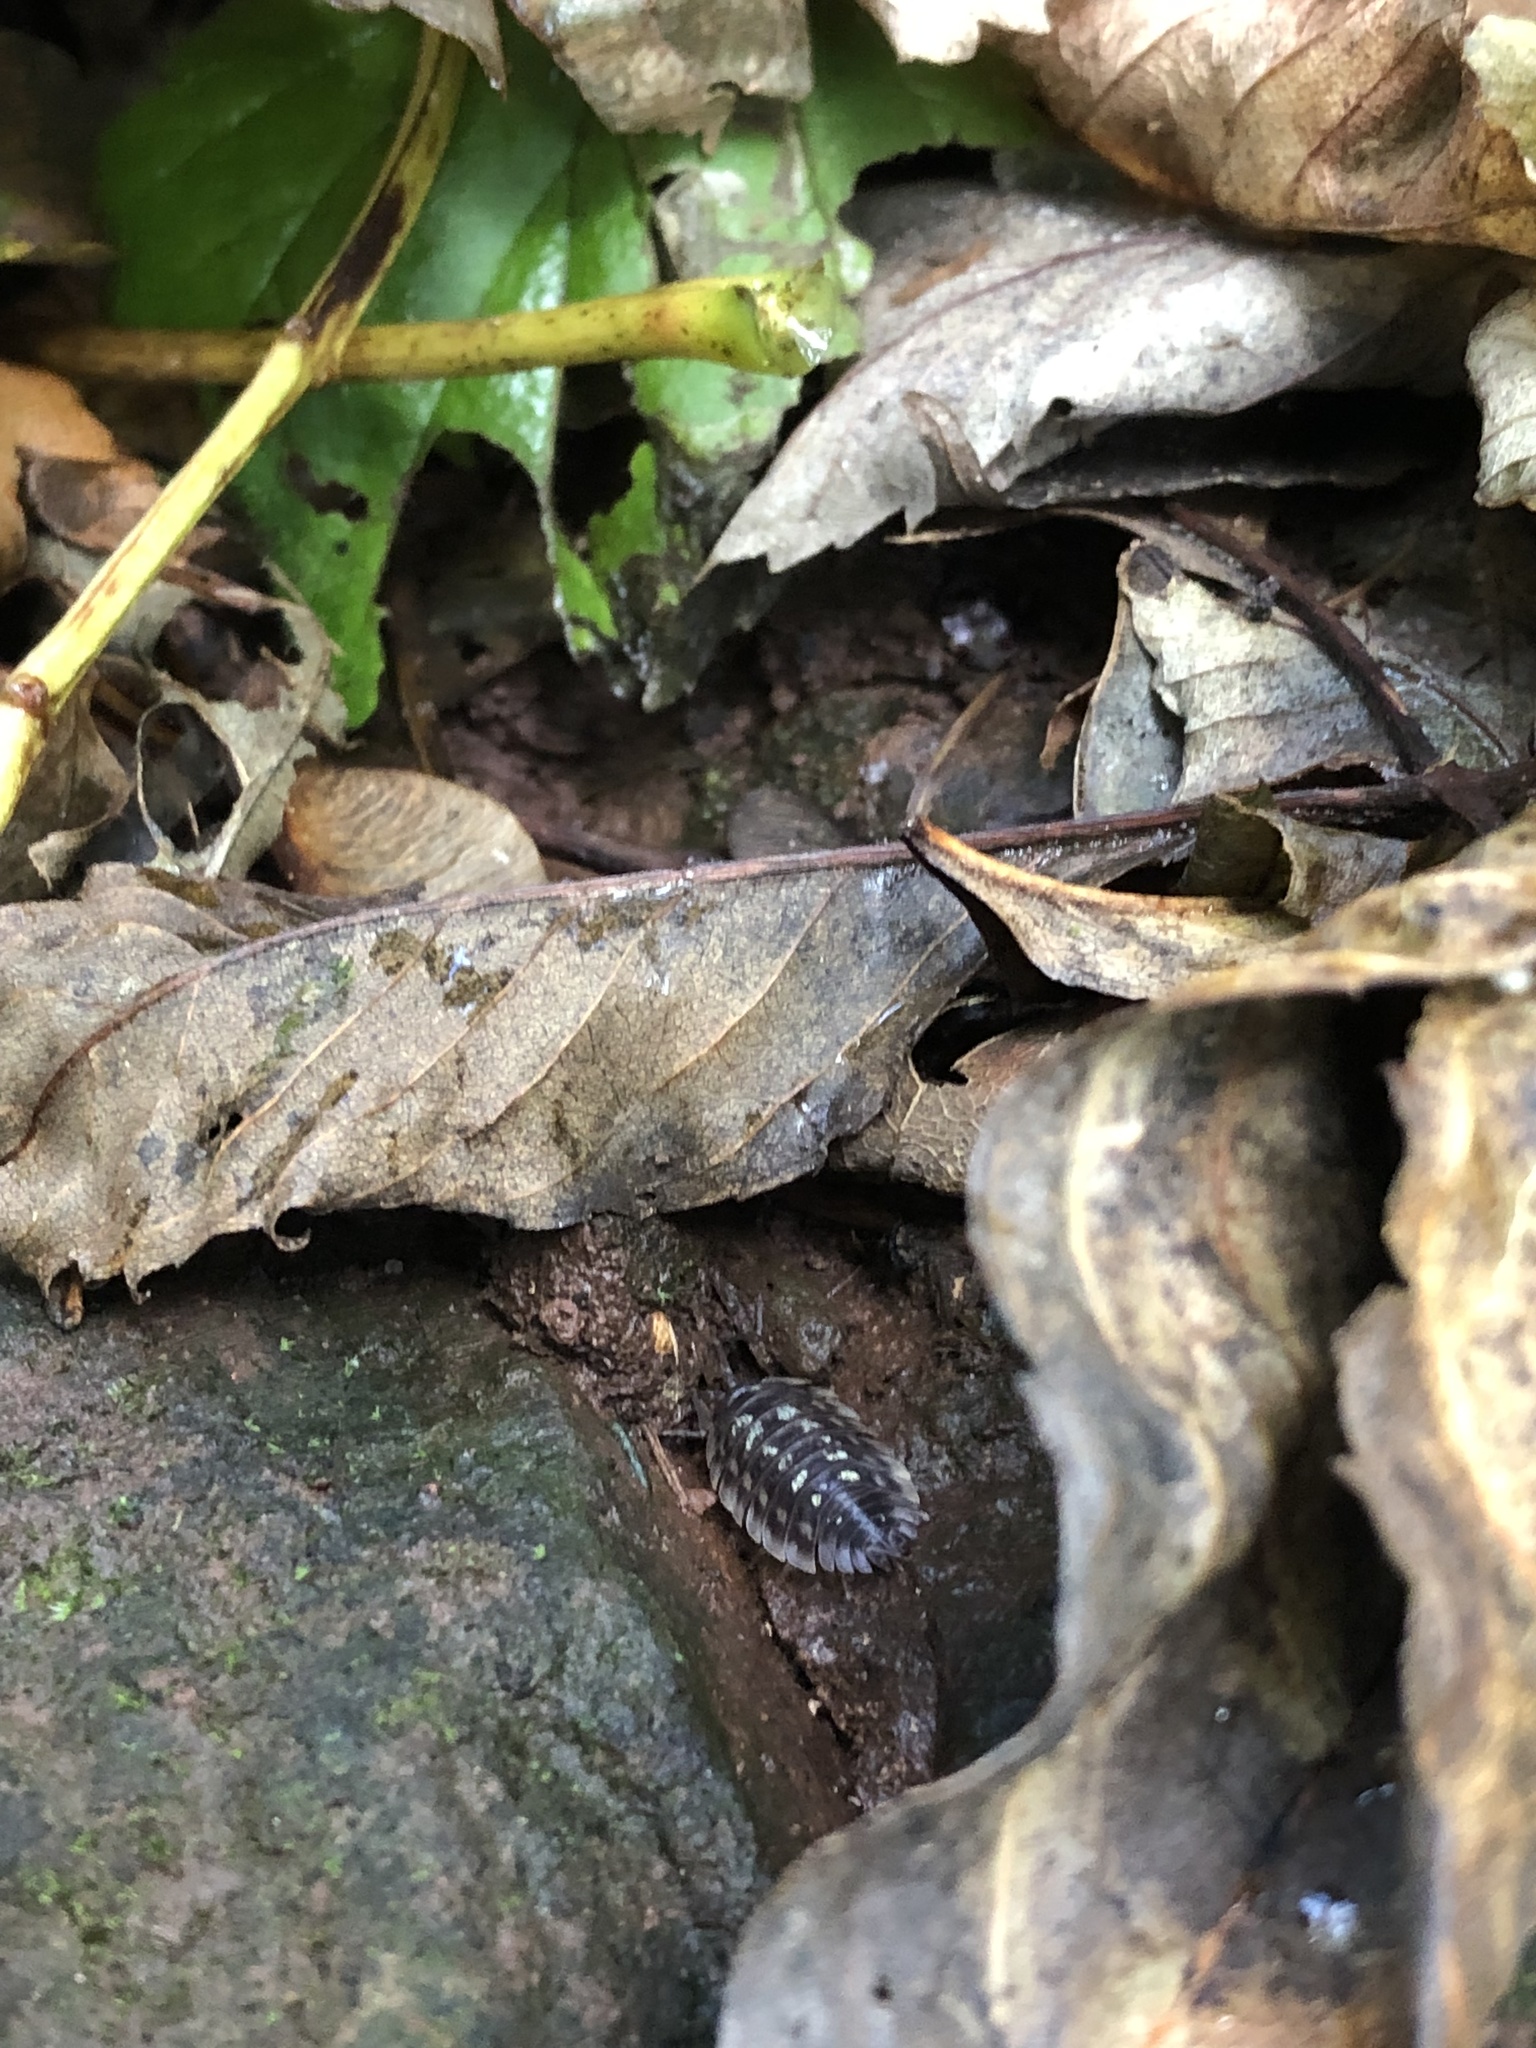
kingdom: Animalia
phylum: Arthropoda
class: Malacostraca
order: Isopoda
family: Oniscidae
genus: Oniscus
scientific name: Oniscus asellus
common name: Common shiny woodlouse
